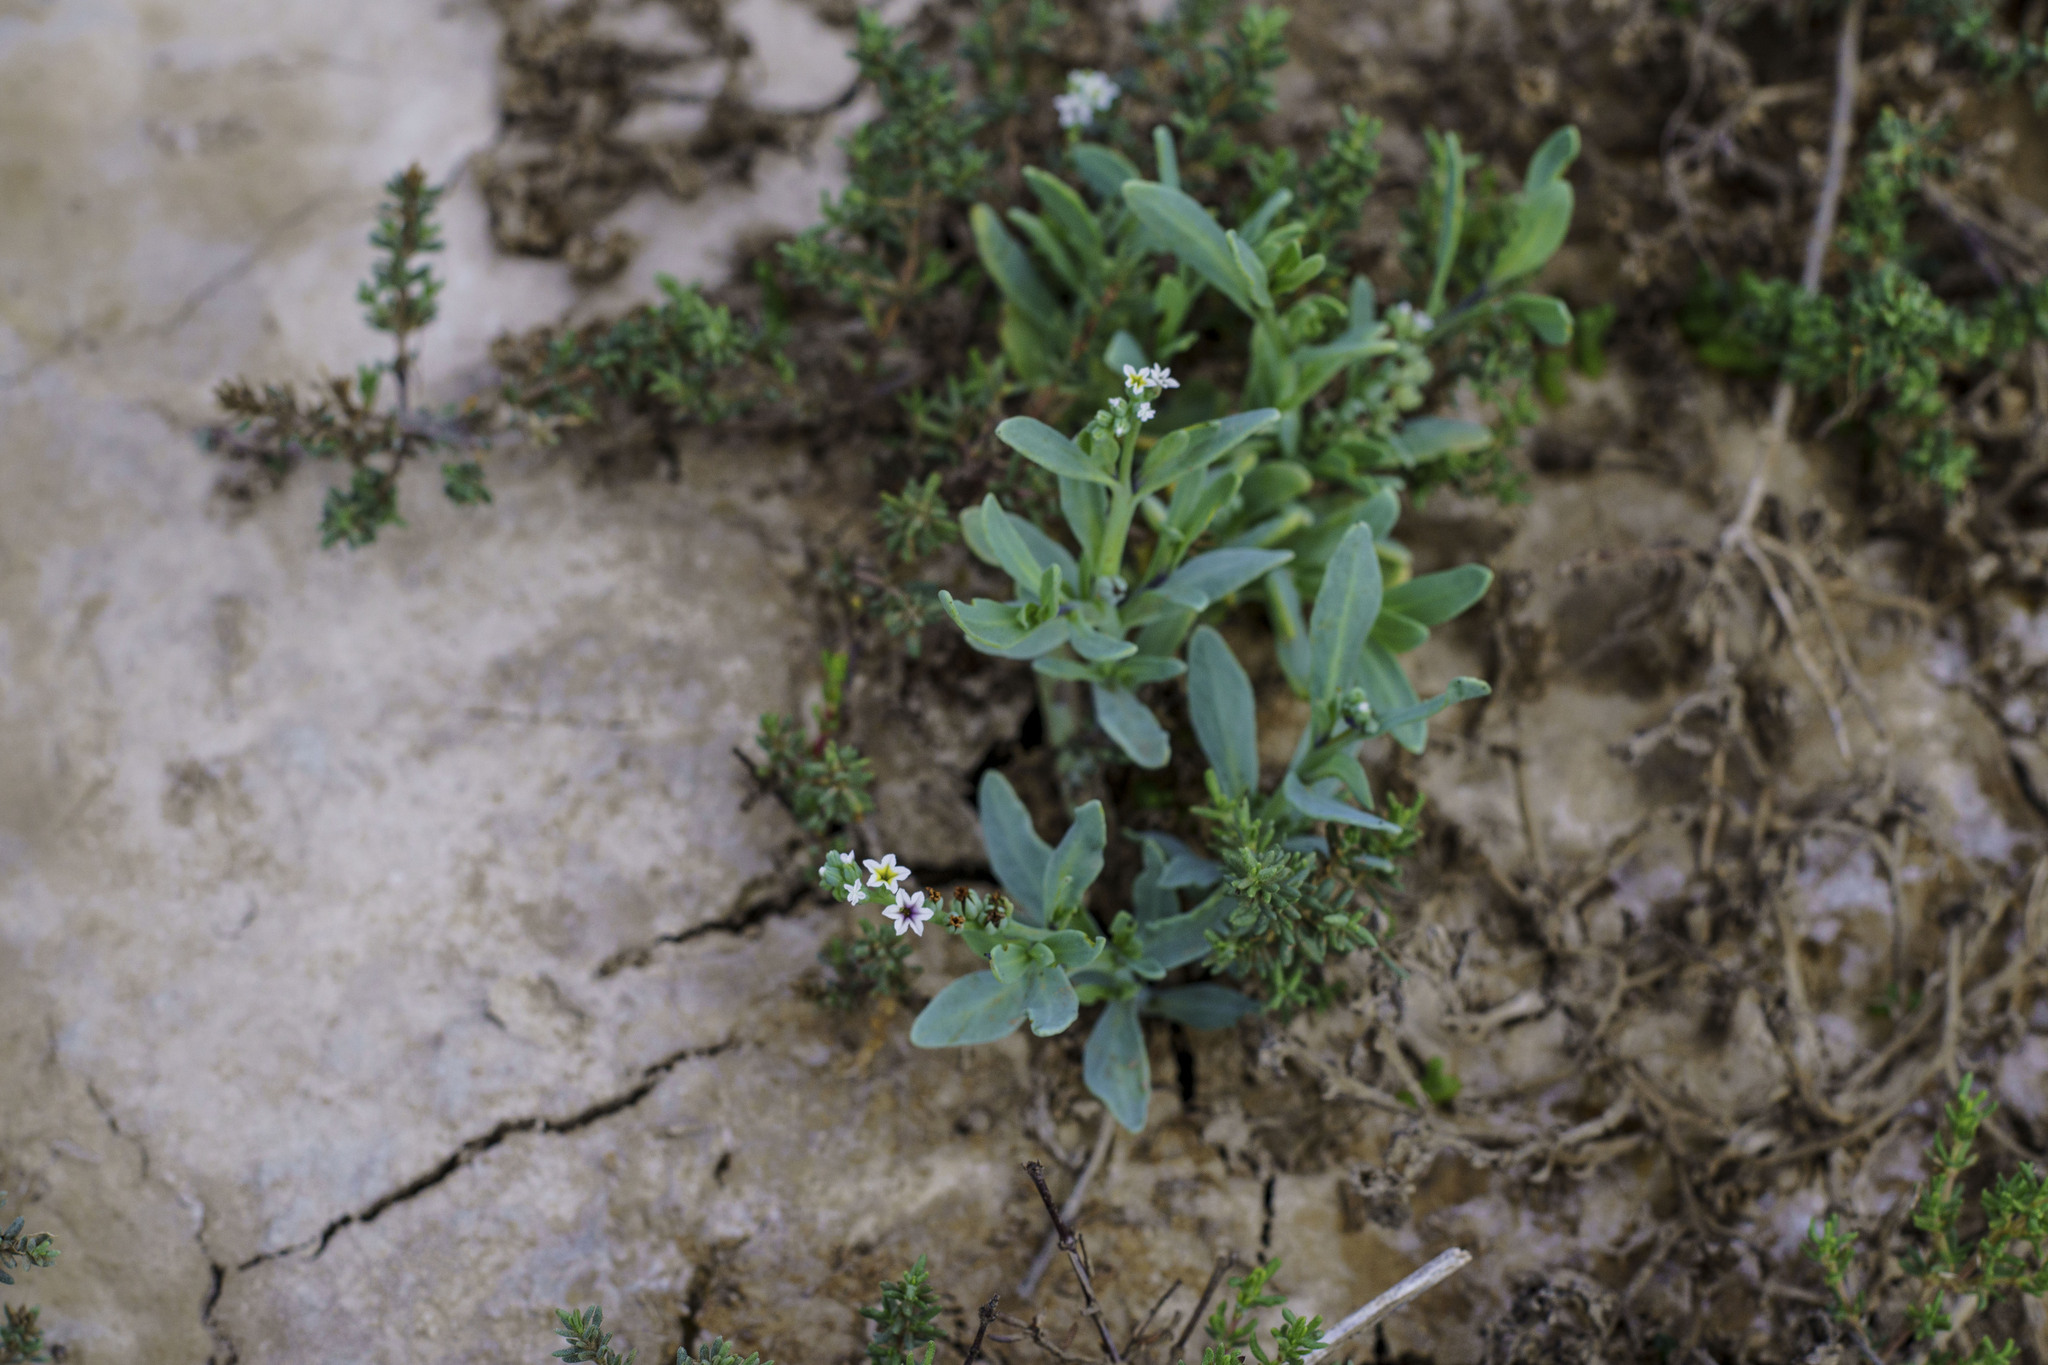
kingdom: Plantae
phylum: Tracheophyta
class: Magnoliopsida
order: Boraginales
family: Heliotropiaceae
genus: Heliotropium
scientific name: Heliotropium curassavicum
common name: Seaside heliotrope
